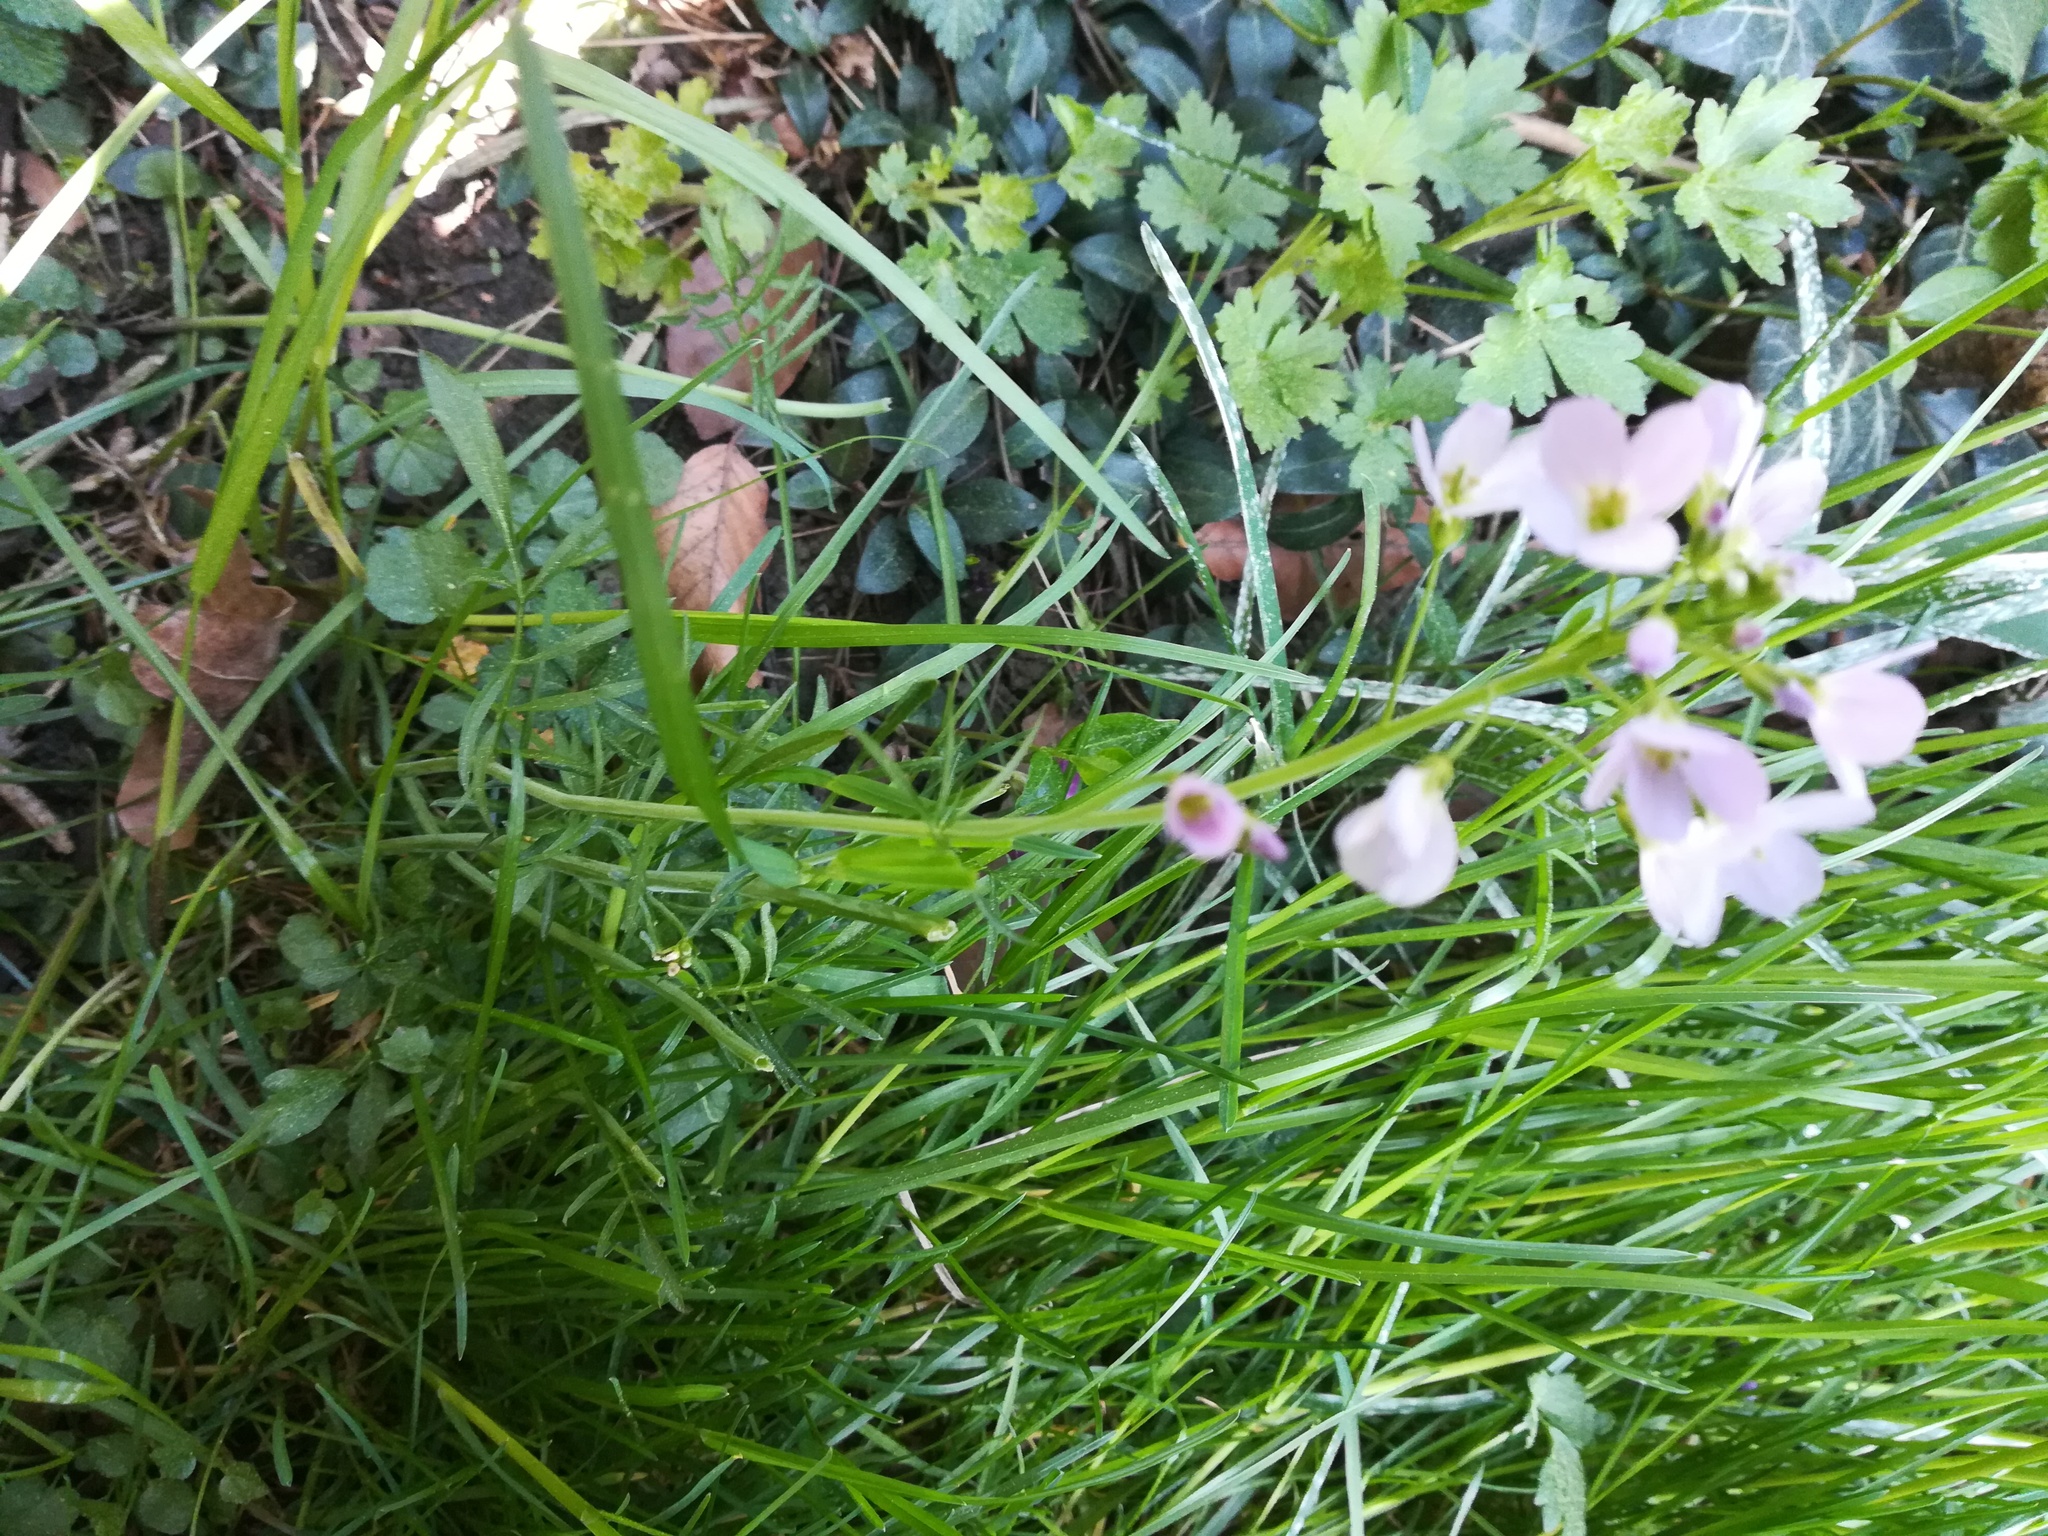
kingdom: Plantae
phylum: Tracheophyta
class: Magnoliopsida
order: Brassicales
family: Brassicaceae
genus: Cardamine
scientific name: Cardamine pratensis
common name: Cuckoo flower
